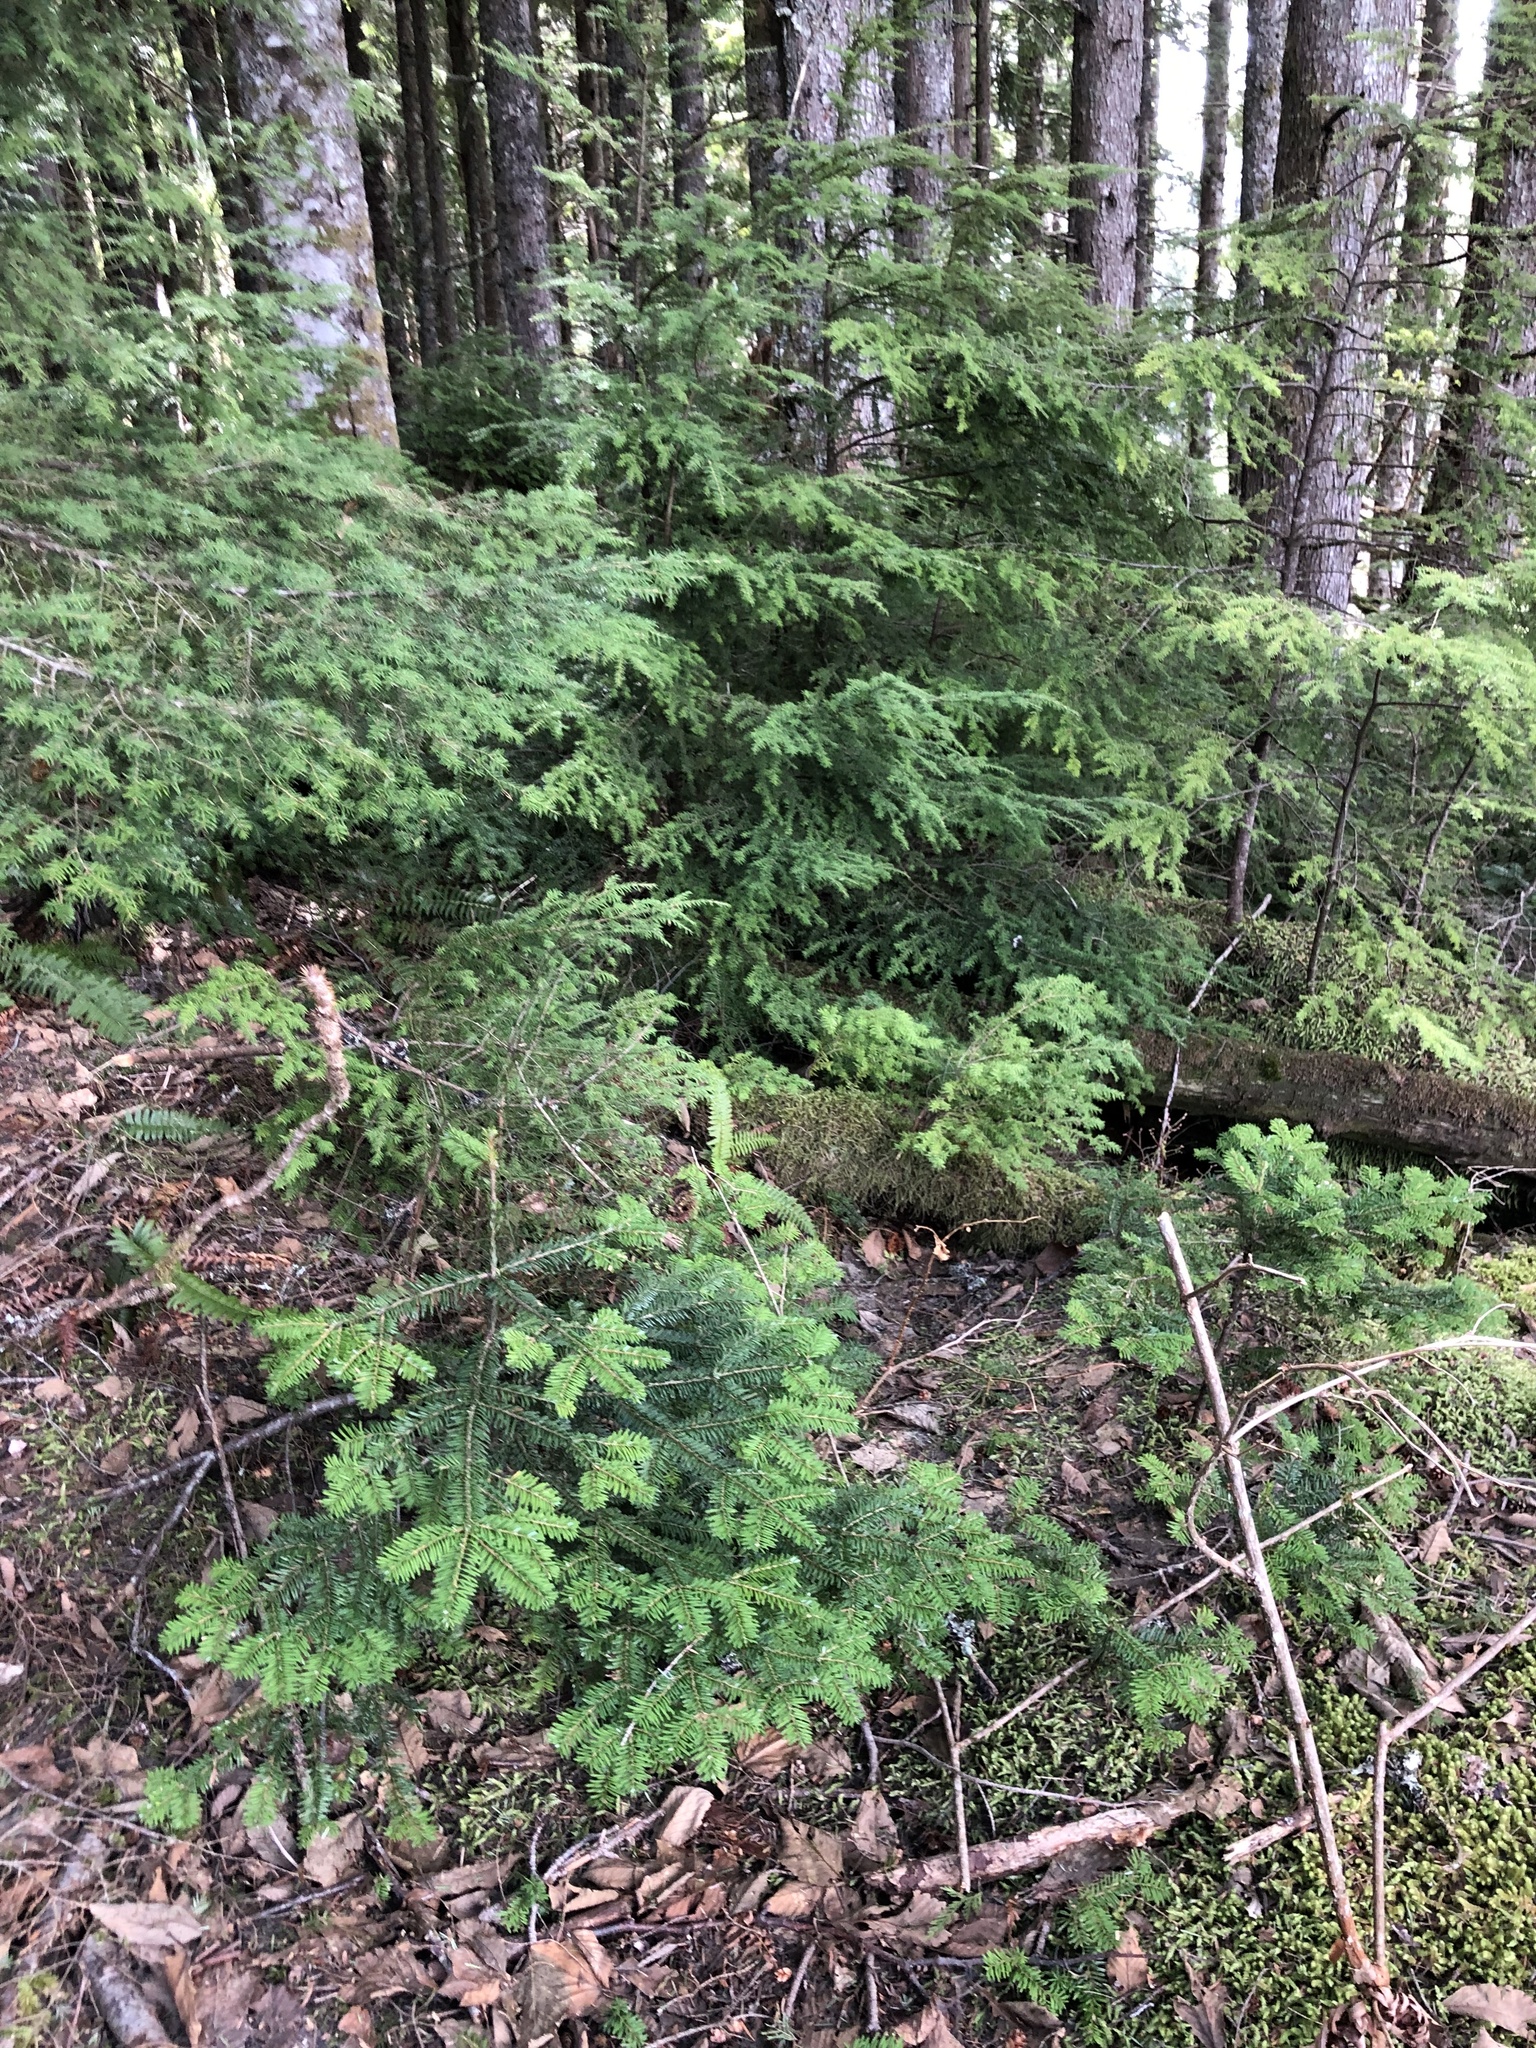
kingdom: Plantae
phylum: Tracheophyta
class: Pinopsida
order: Pinales
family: Pinaceae
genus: Tsuga
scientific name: Tsuga heterophylla
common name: Western hemlock
